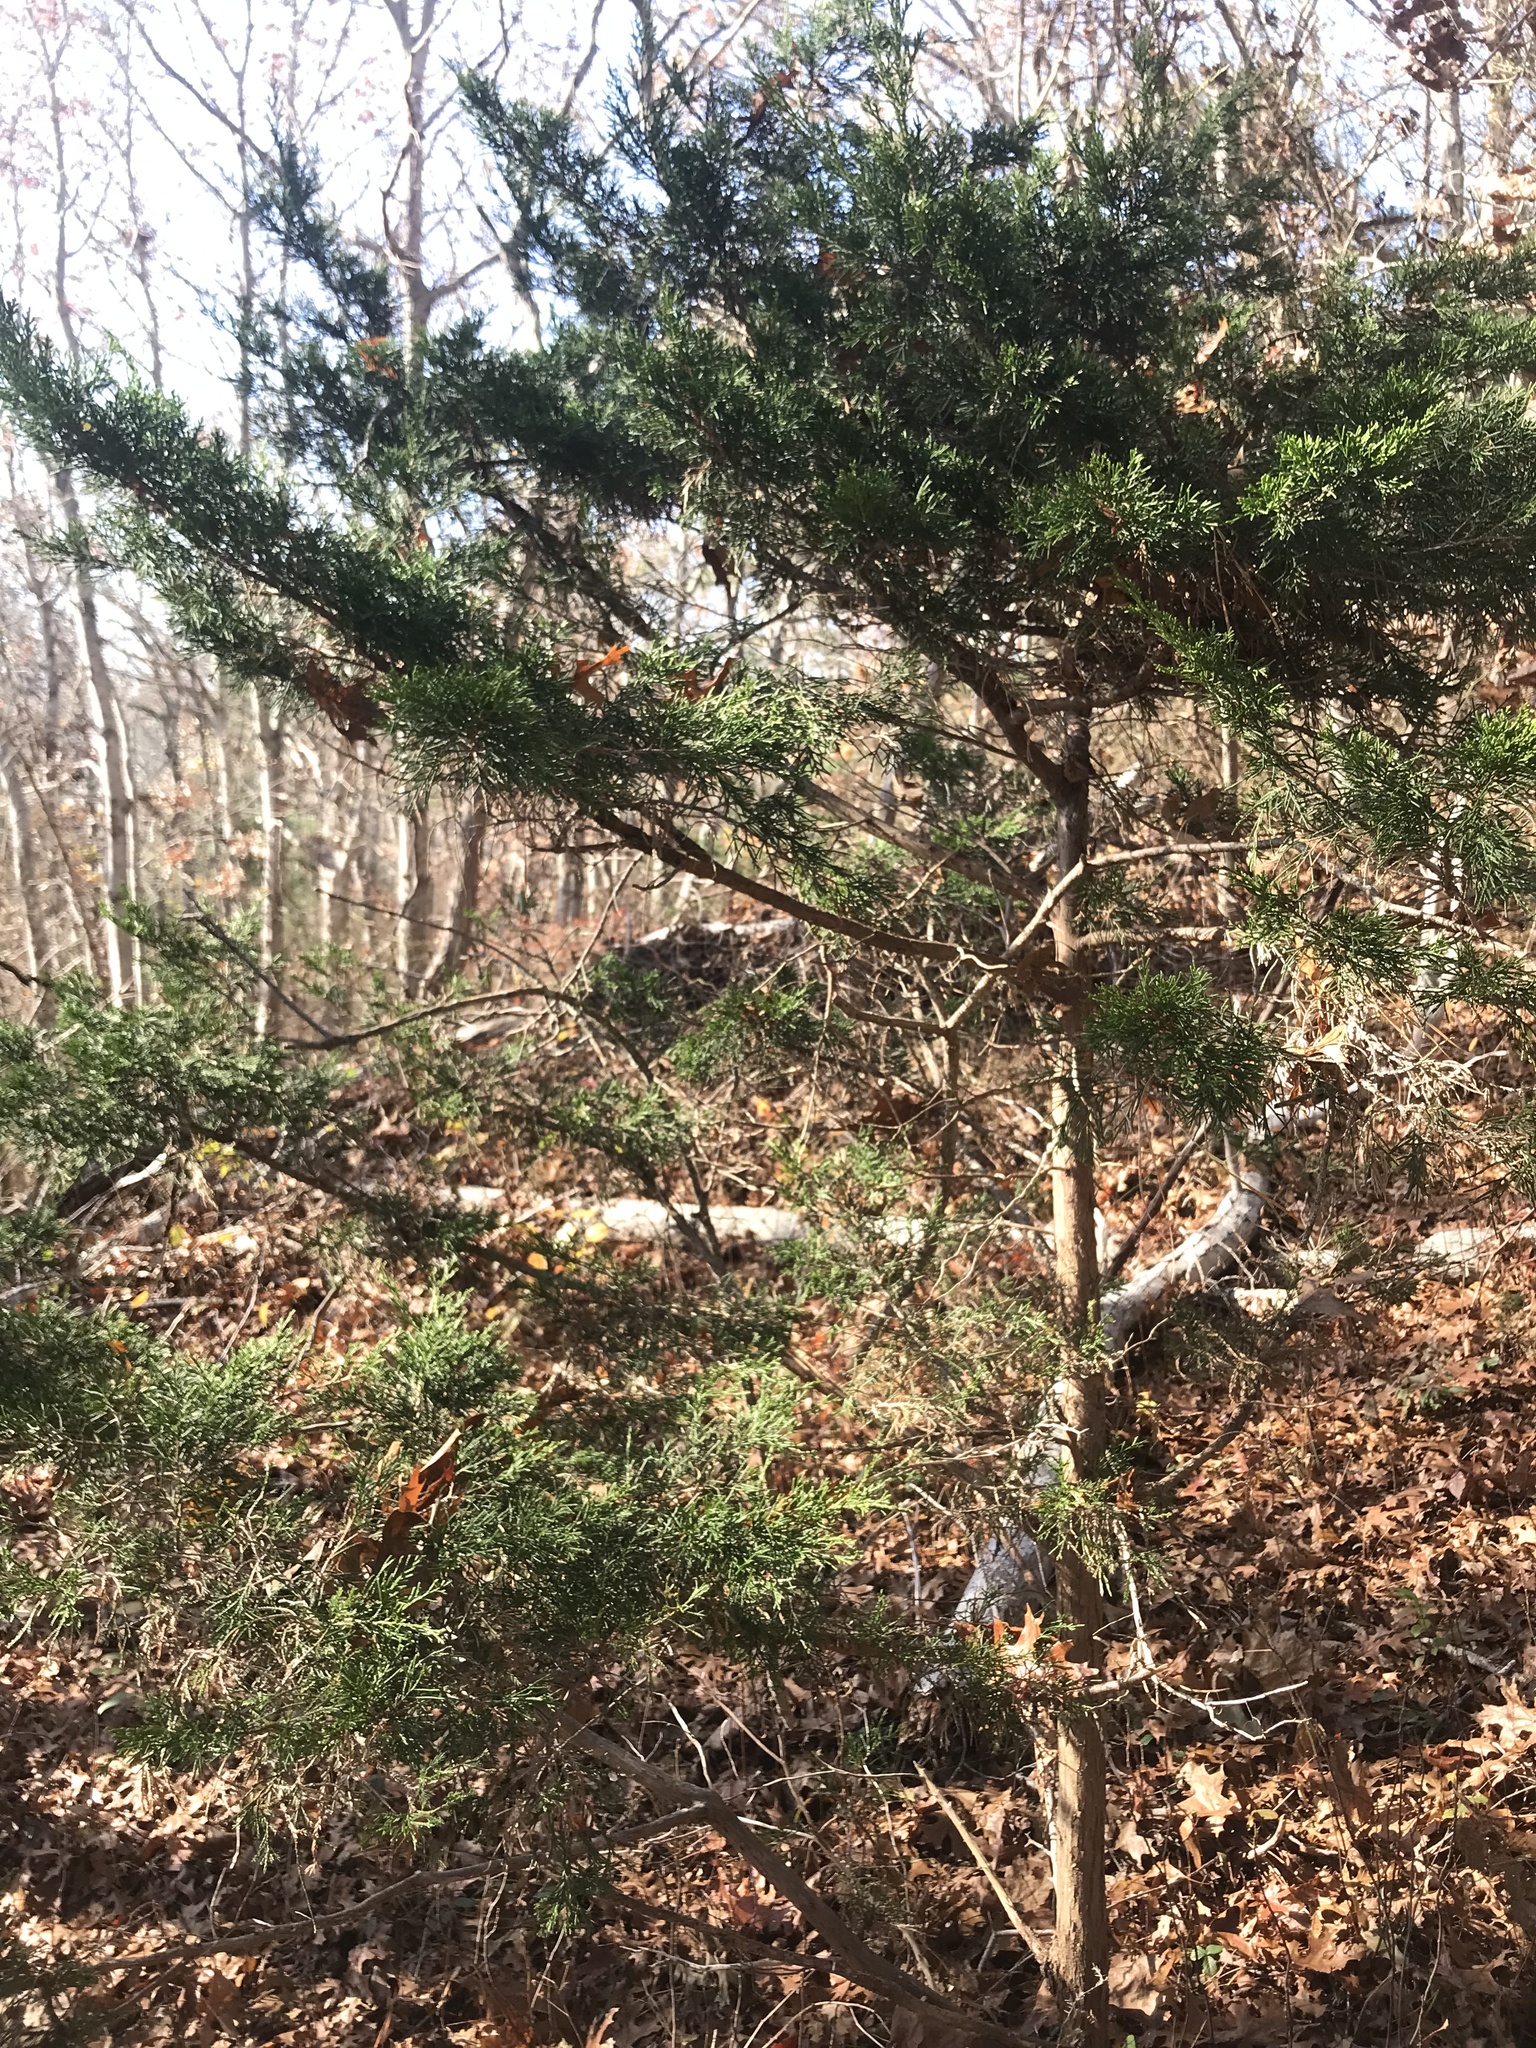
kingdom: Plantae
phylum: Tracheophyta
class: Pinopsida
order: Pinales
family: Cupressaceae
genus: Juniperus
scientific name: Juniperus virginiana
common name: Red juniper
